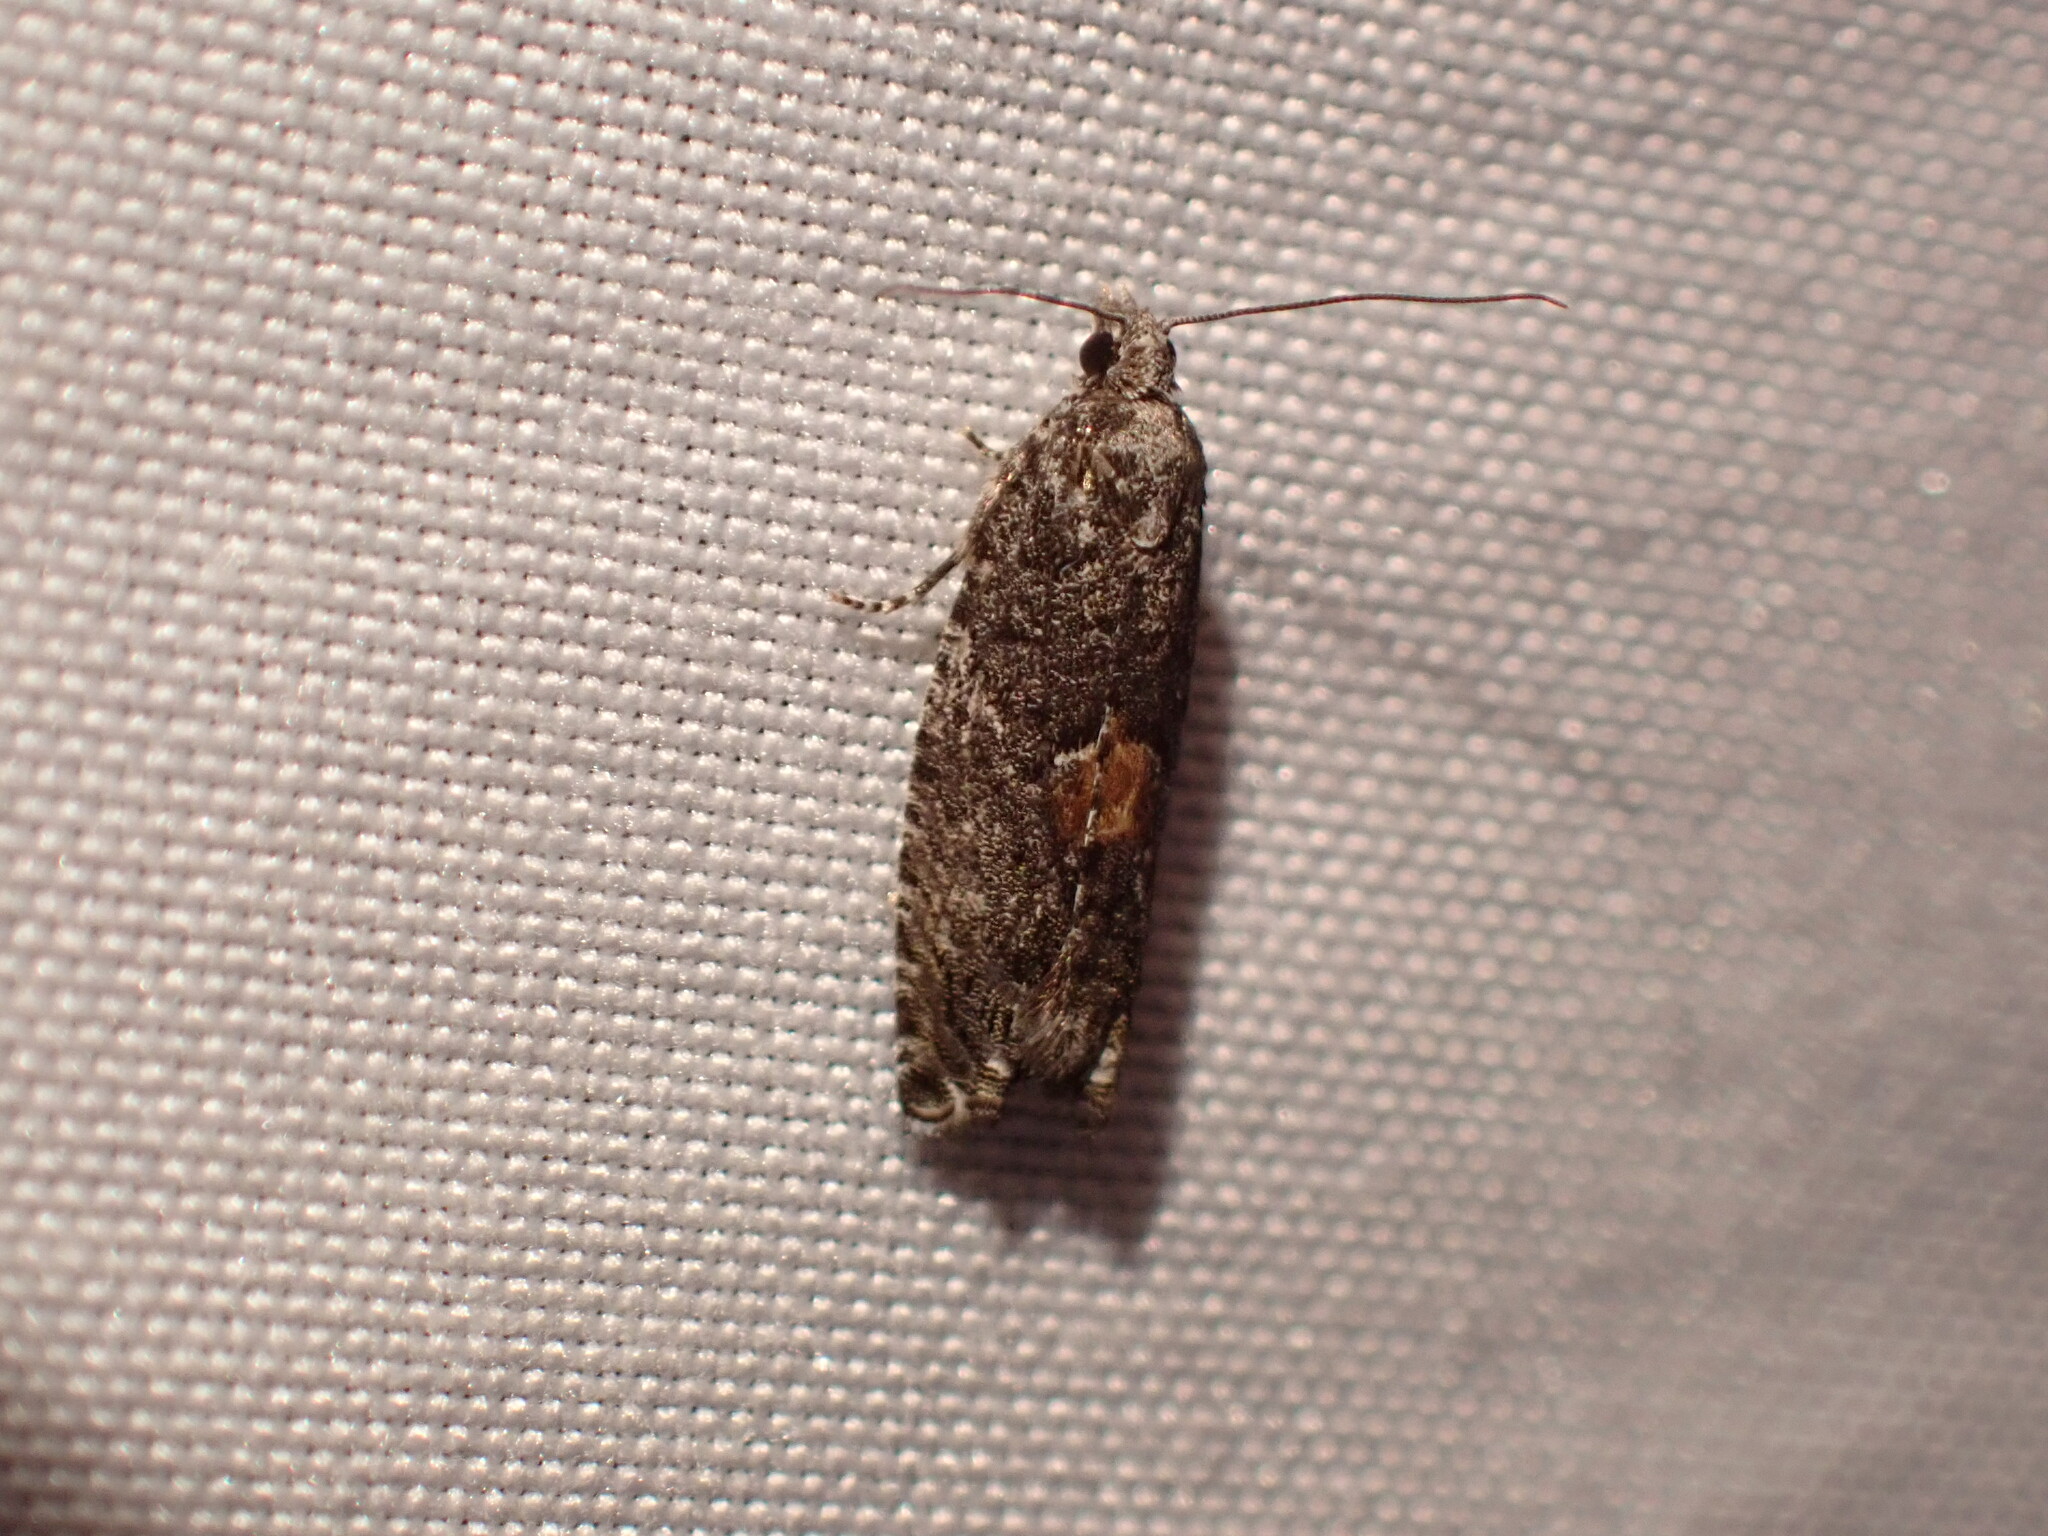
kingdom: Animalia
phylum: Arthropoda
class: Insecta
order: Lepidoptera
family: Tortricidae
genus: Epinotia
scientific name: Epinotia nisella
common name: Grey poplar bell
